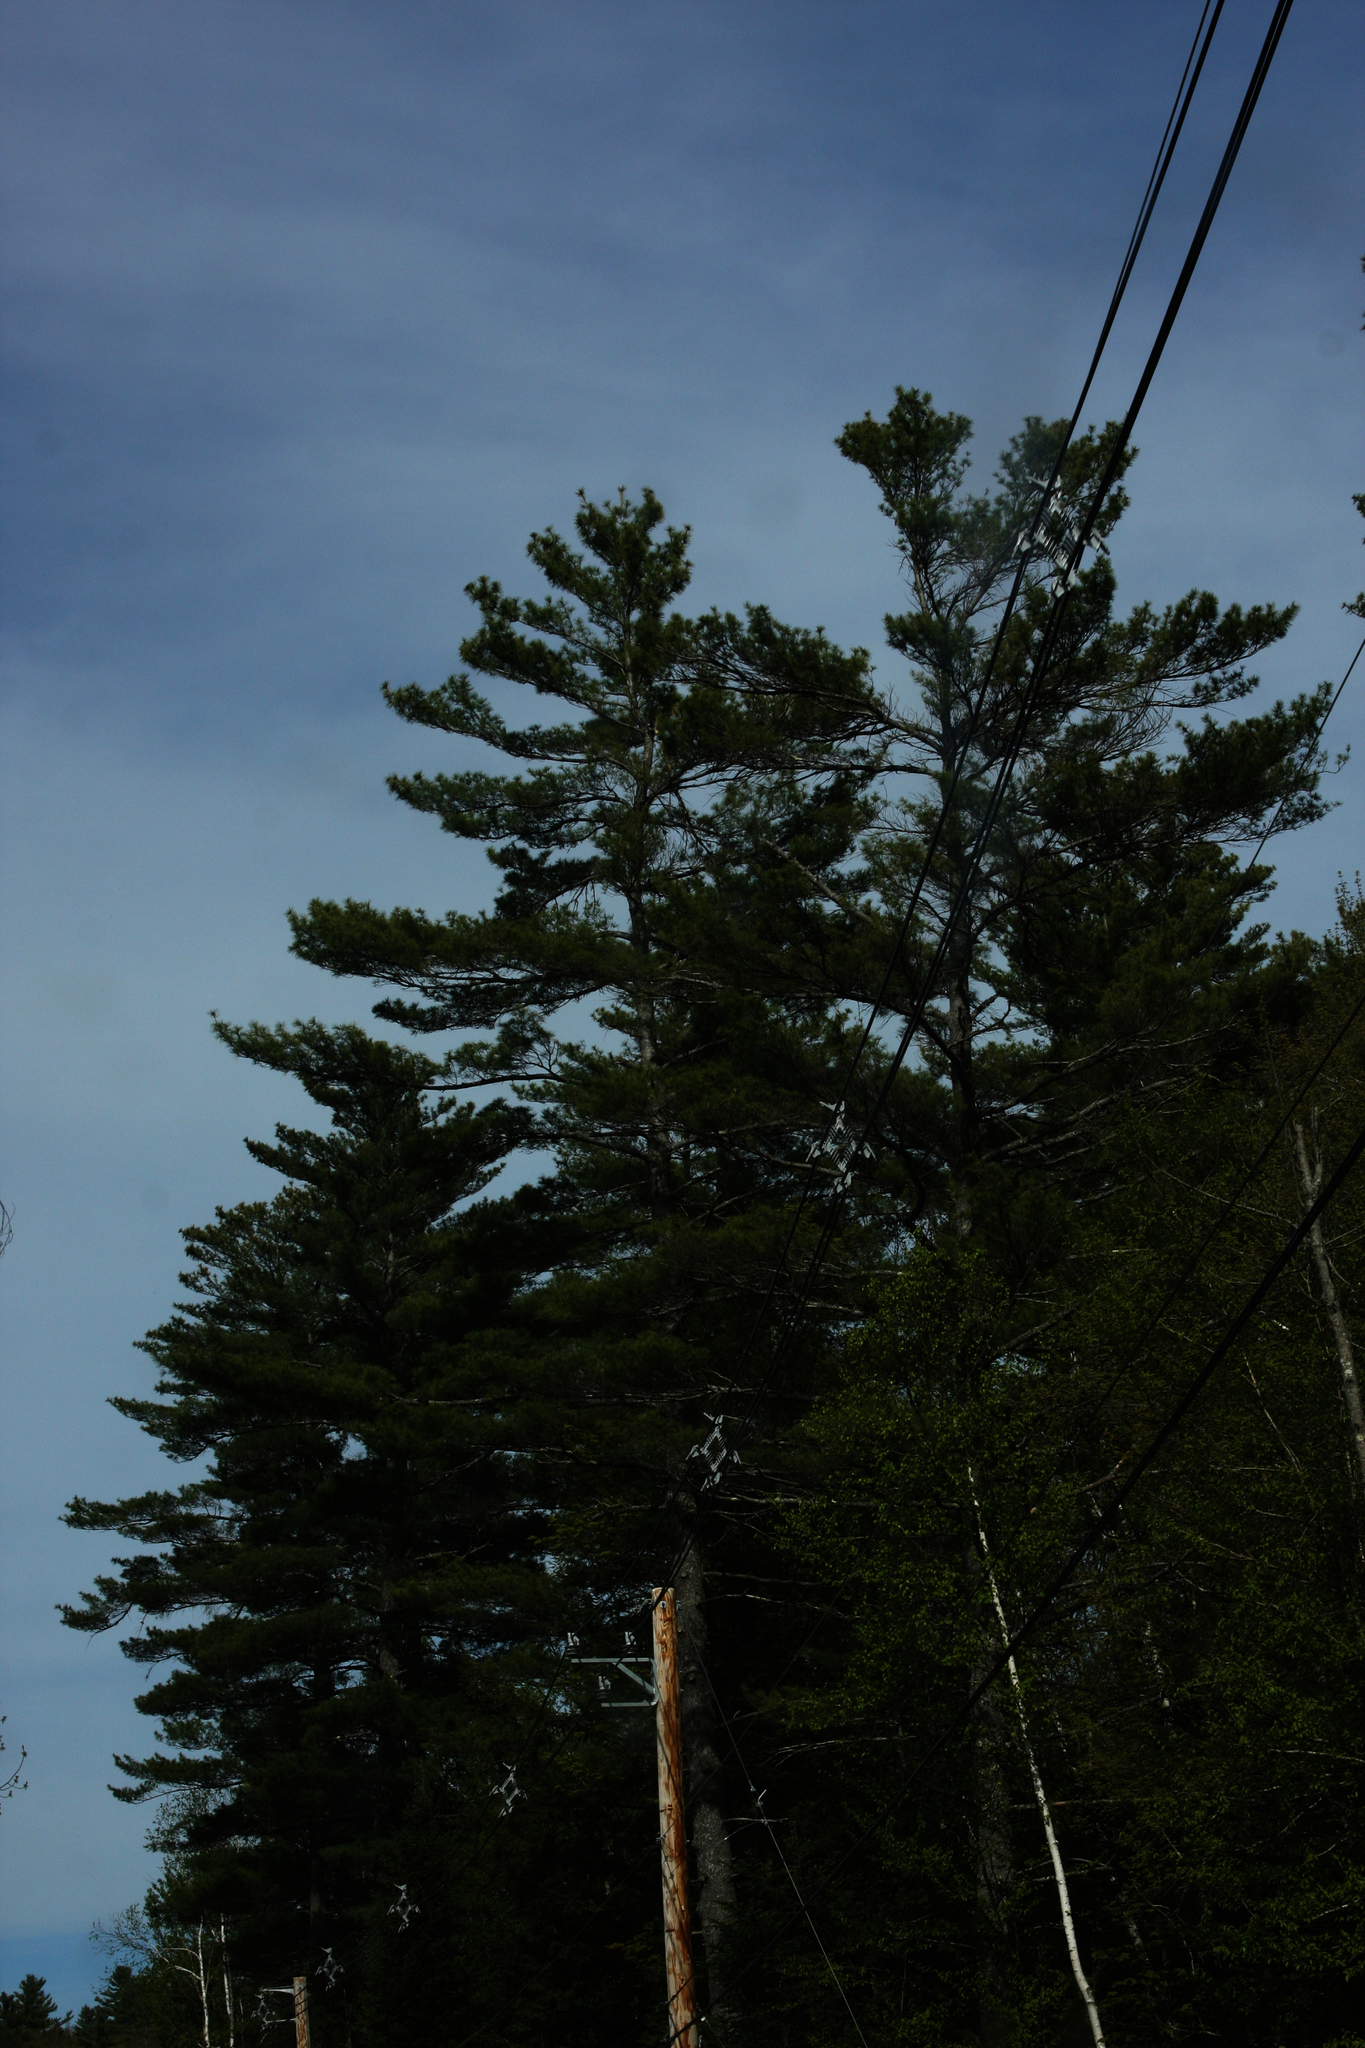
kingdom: Plantae
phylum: Tracheophyta
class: Pinopsida
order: Pinales
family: Pinaceae
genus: Pinus
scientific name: Pinus strobus
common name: Weymouth pine
